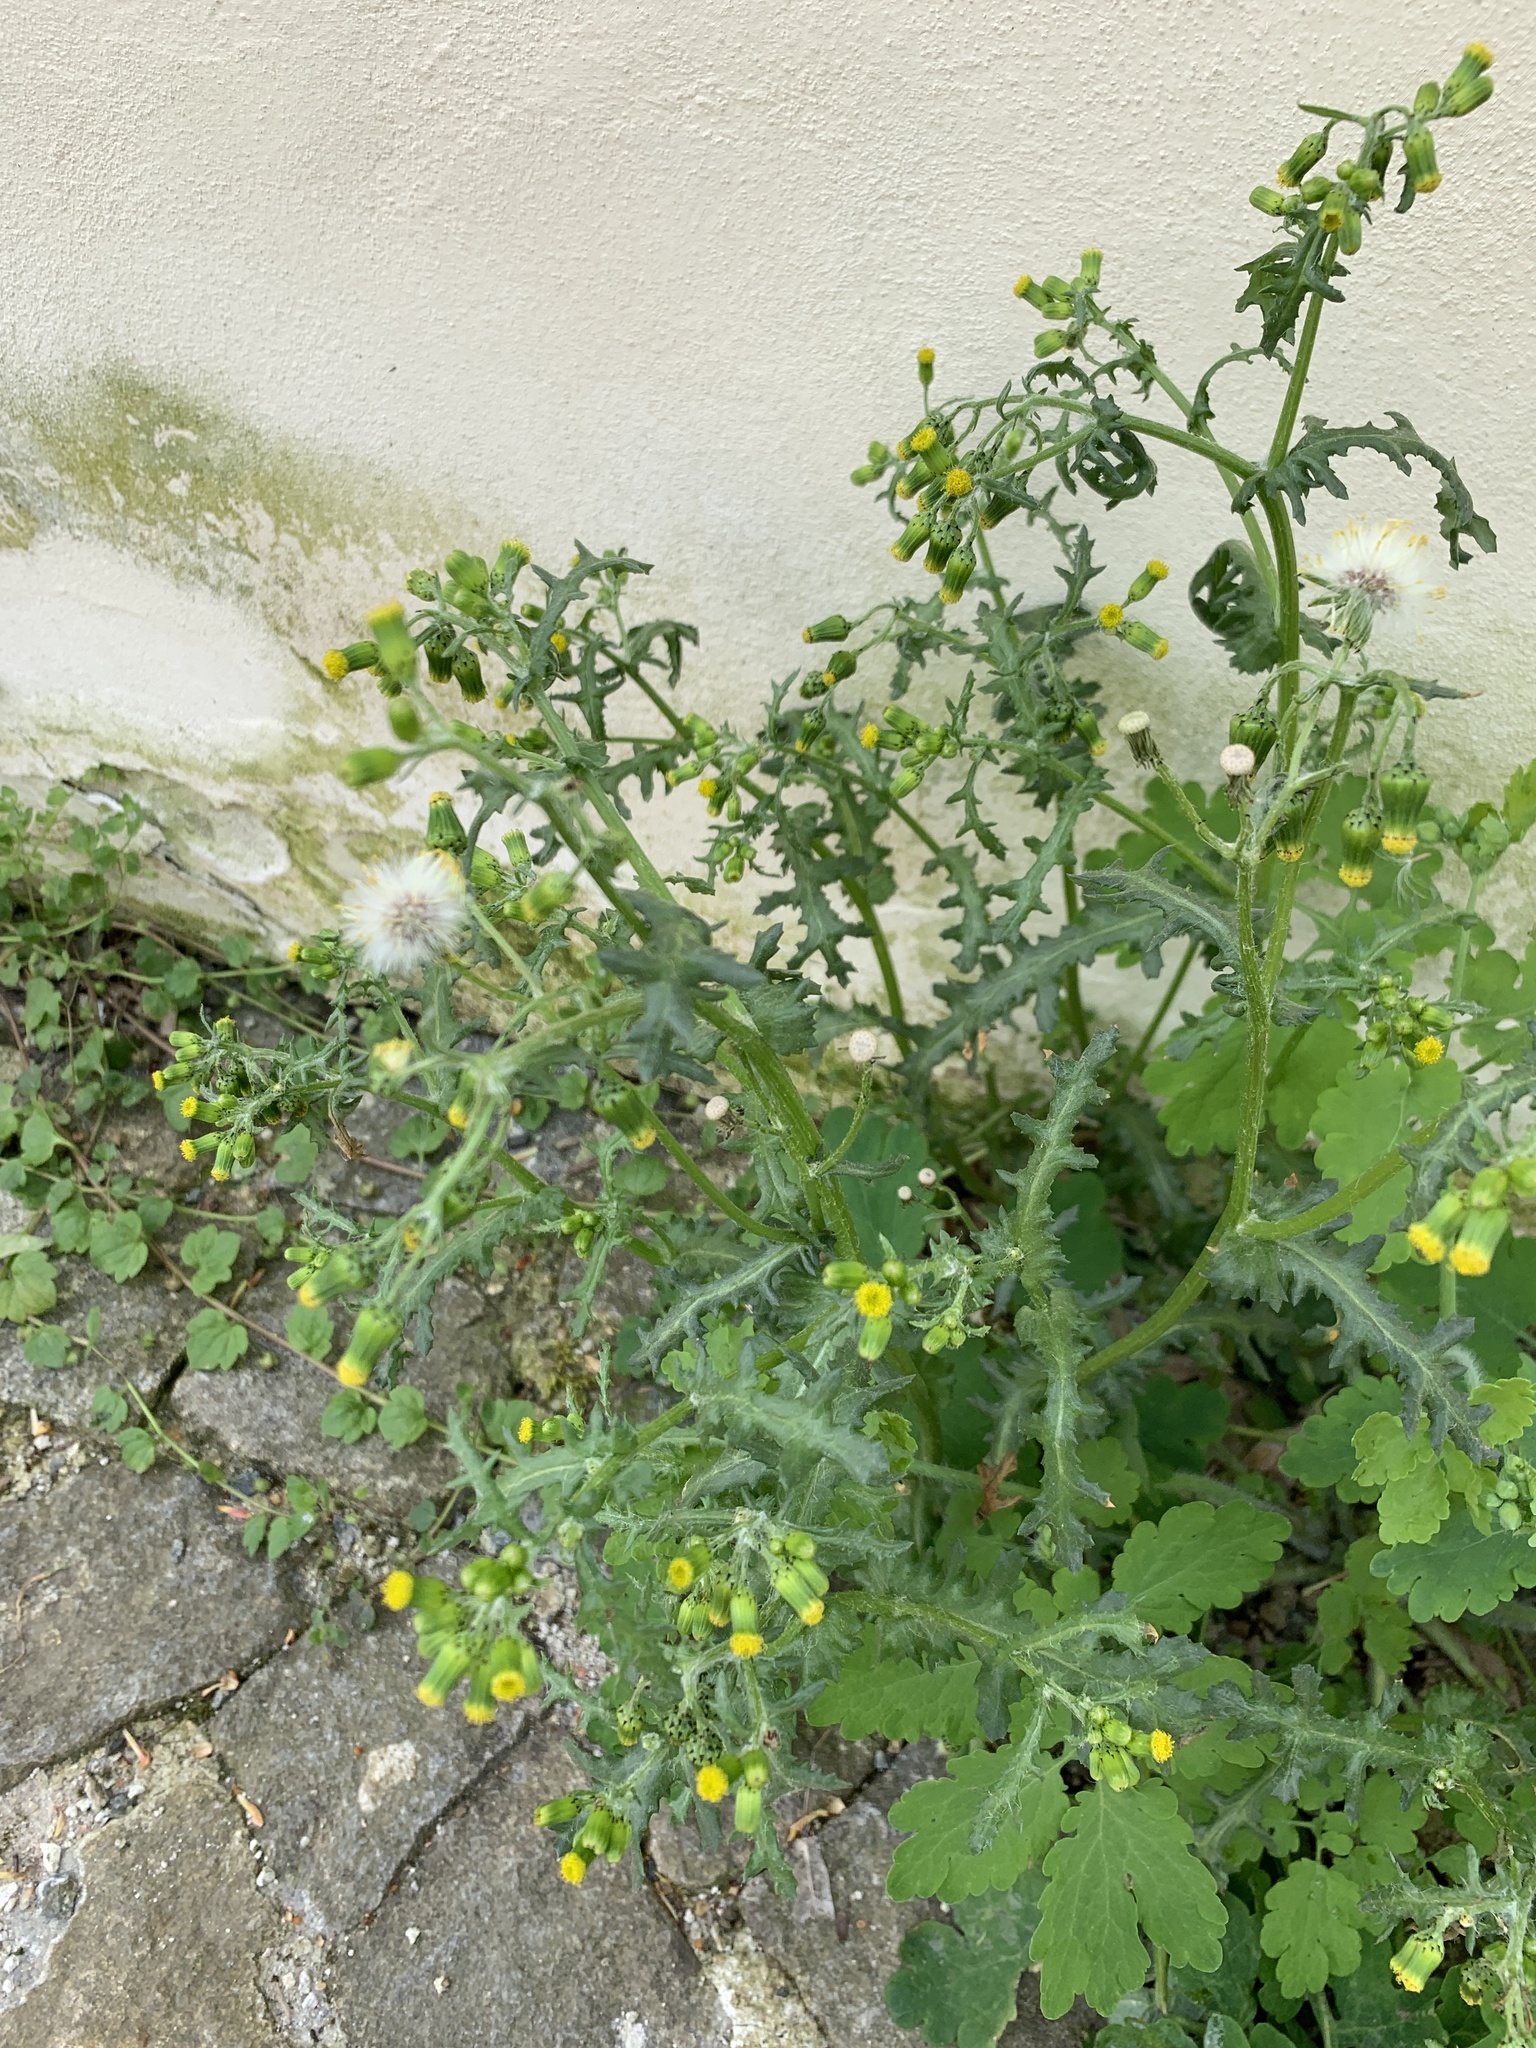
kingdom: Plantae
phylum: Tracheophyta
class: Magnoliopsida
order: Asterales
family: Asteraceae
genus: Senecio
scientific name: Senecio vulgaris
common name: Old-man-in-the-spring
